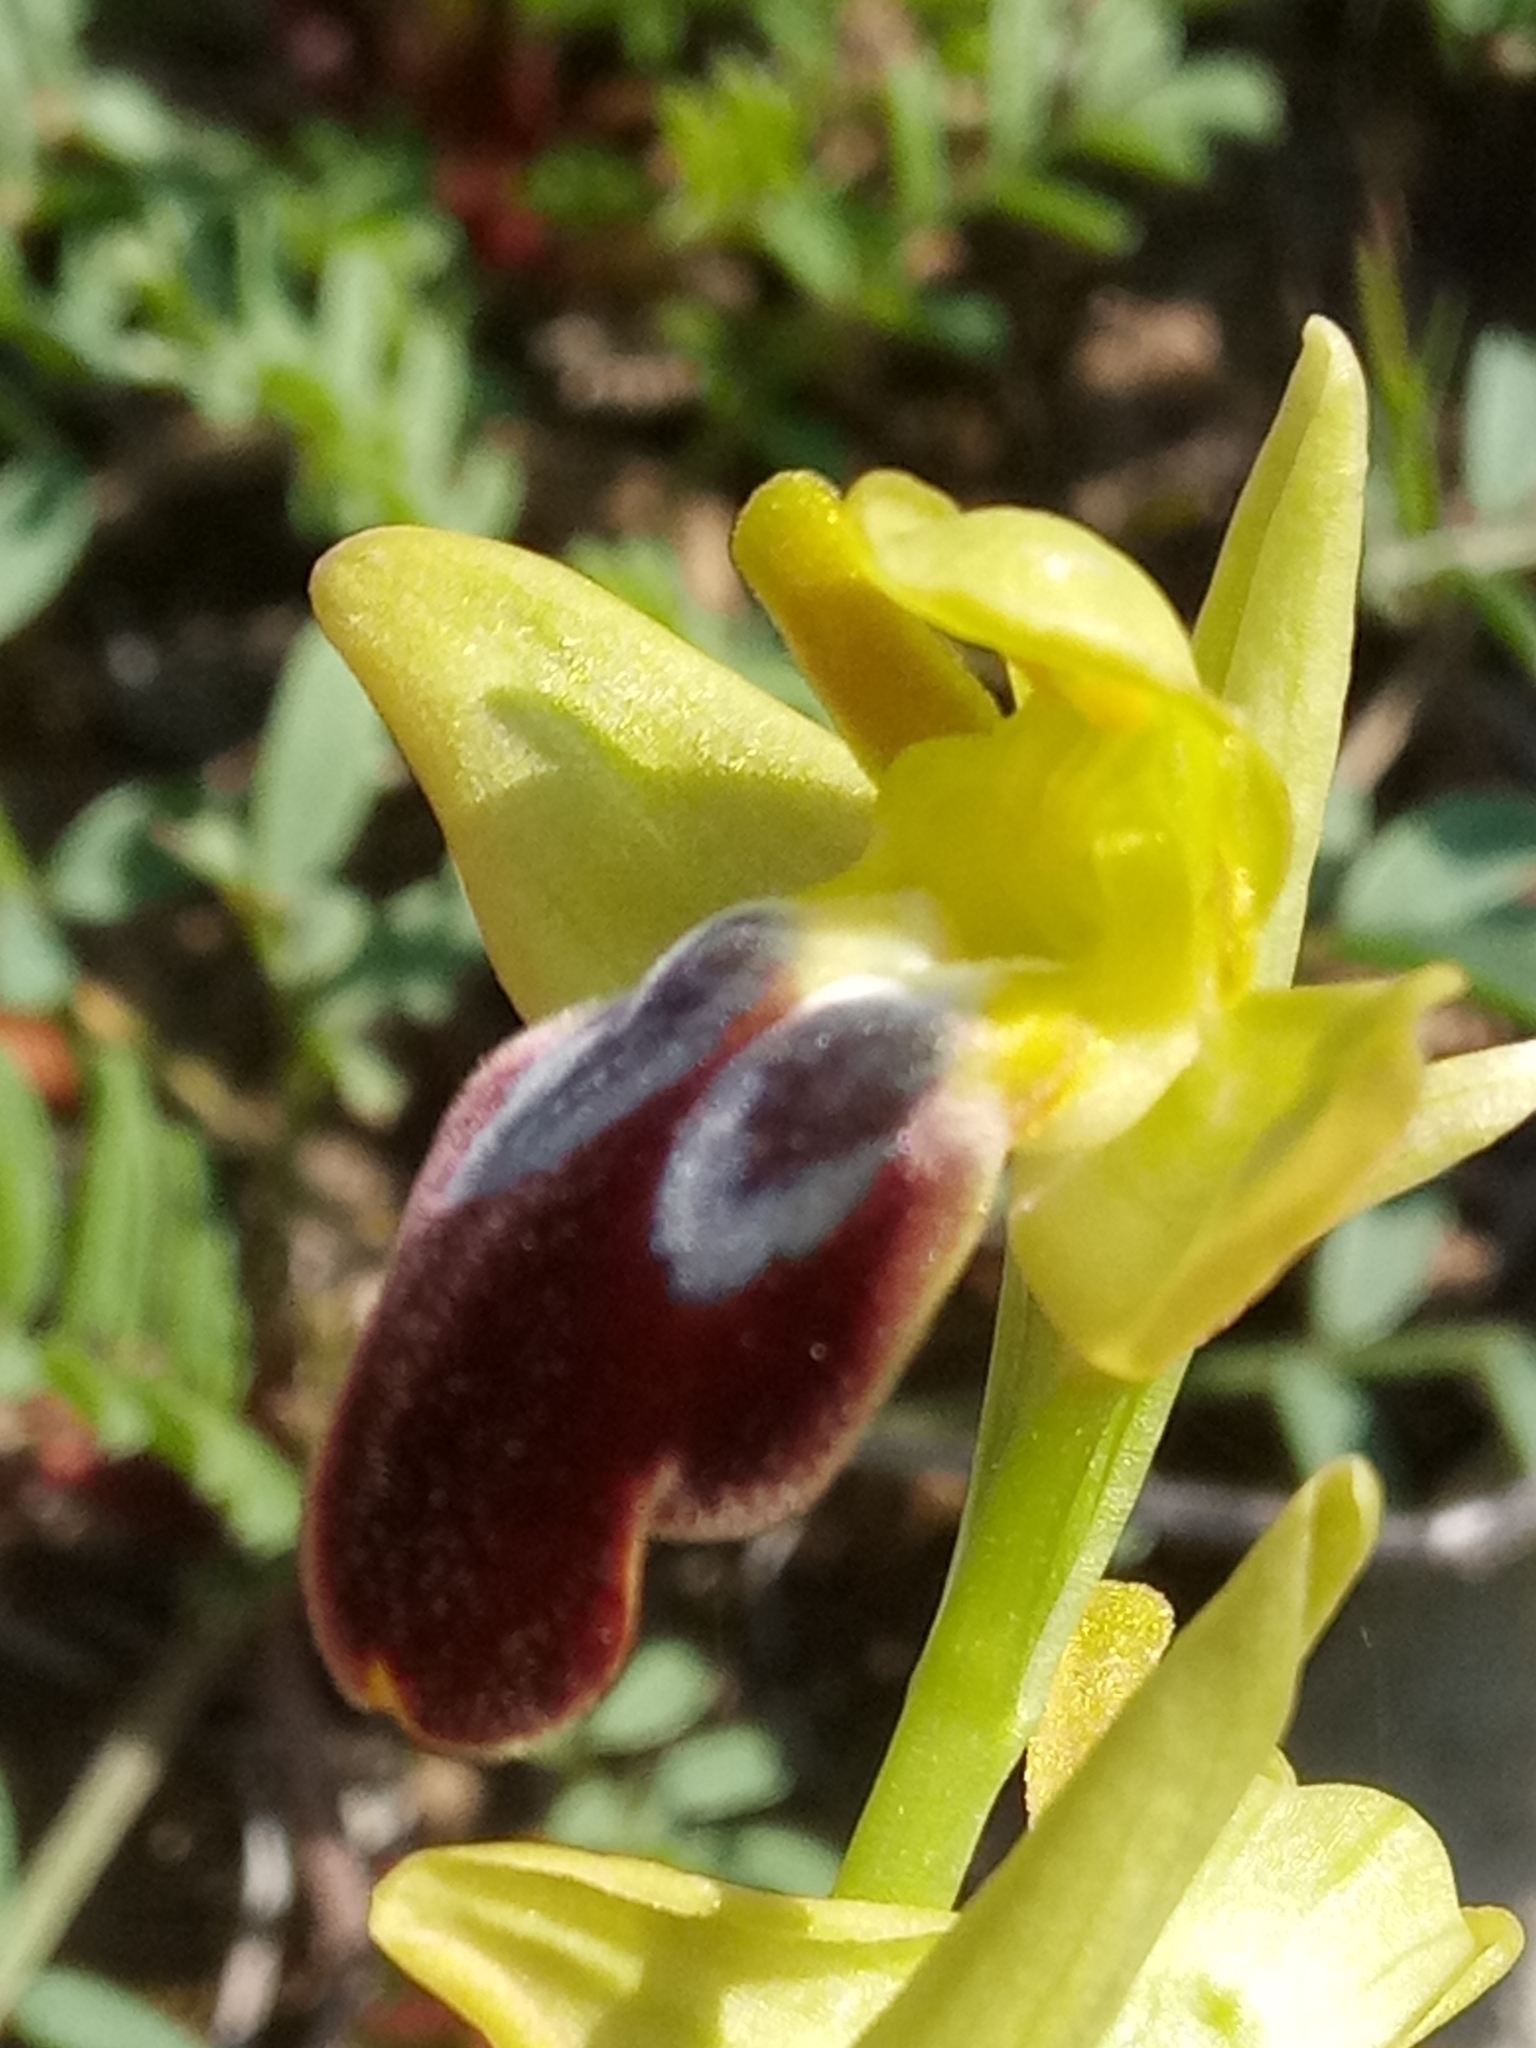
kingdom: Plantae
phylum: Tracheophyta
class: Liliopsida
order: Asparagales
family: Orchidaceae
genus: Ophrys
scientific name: Ophrys fusca
